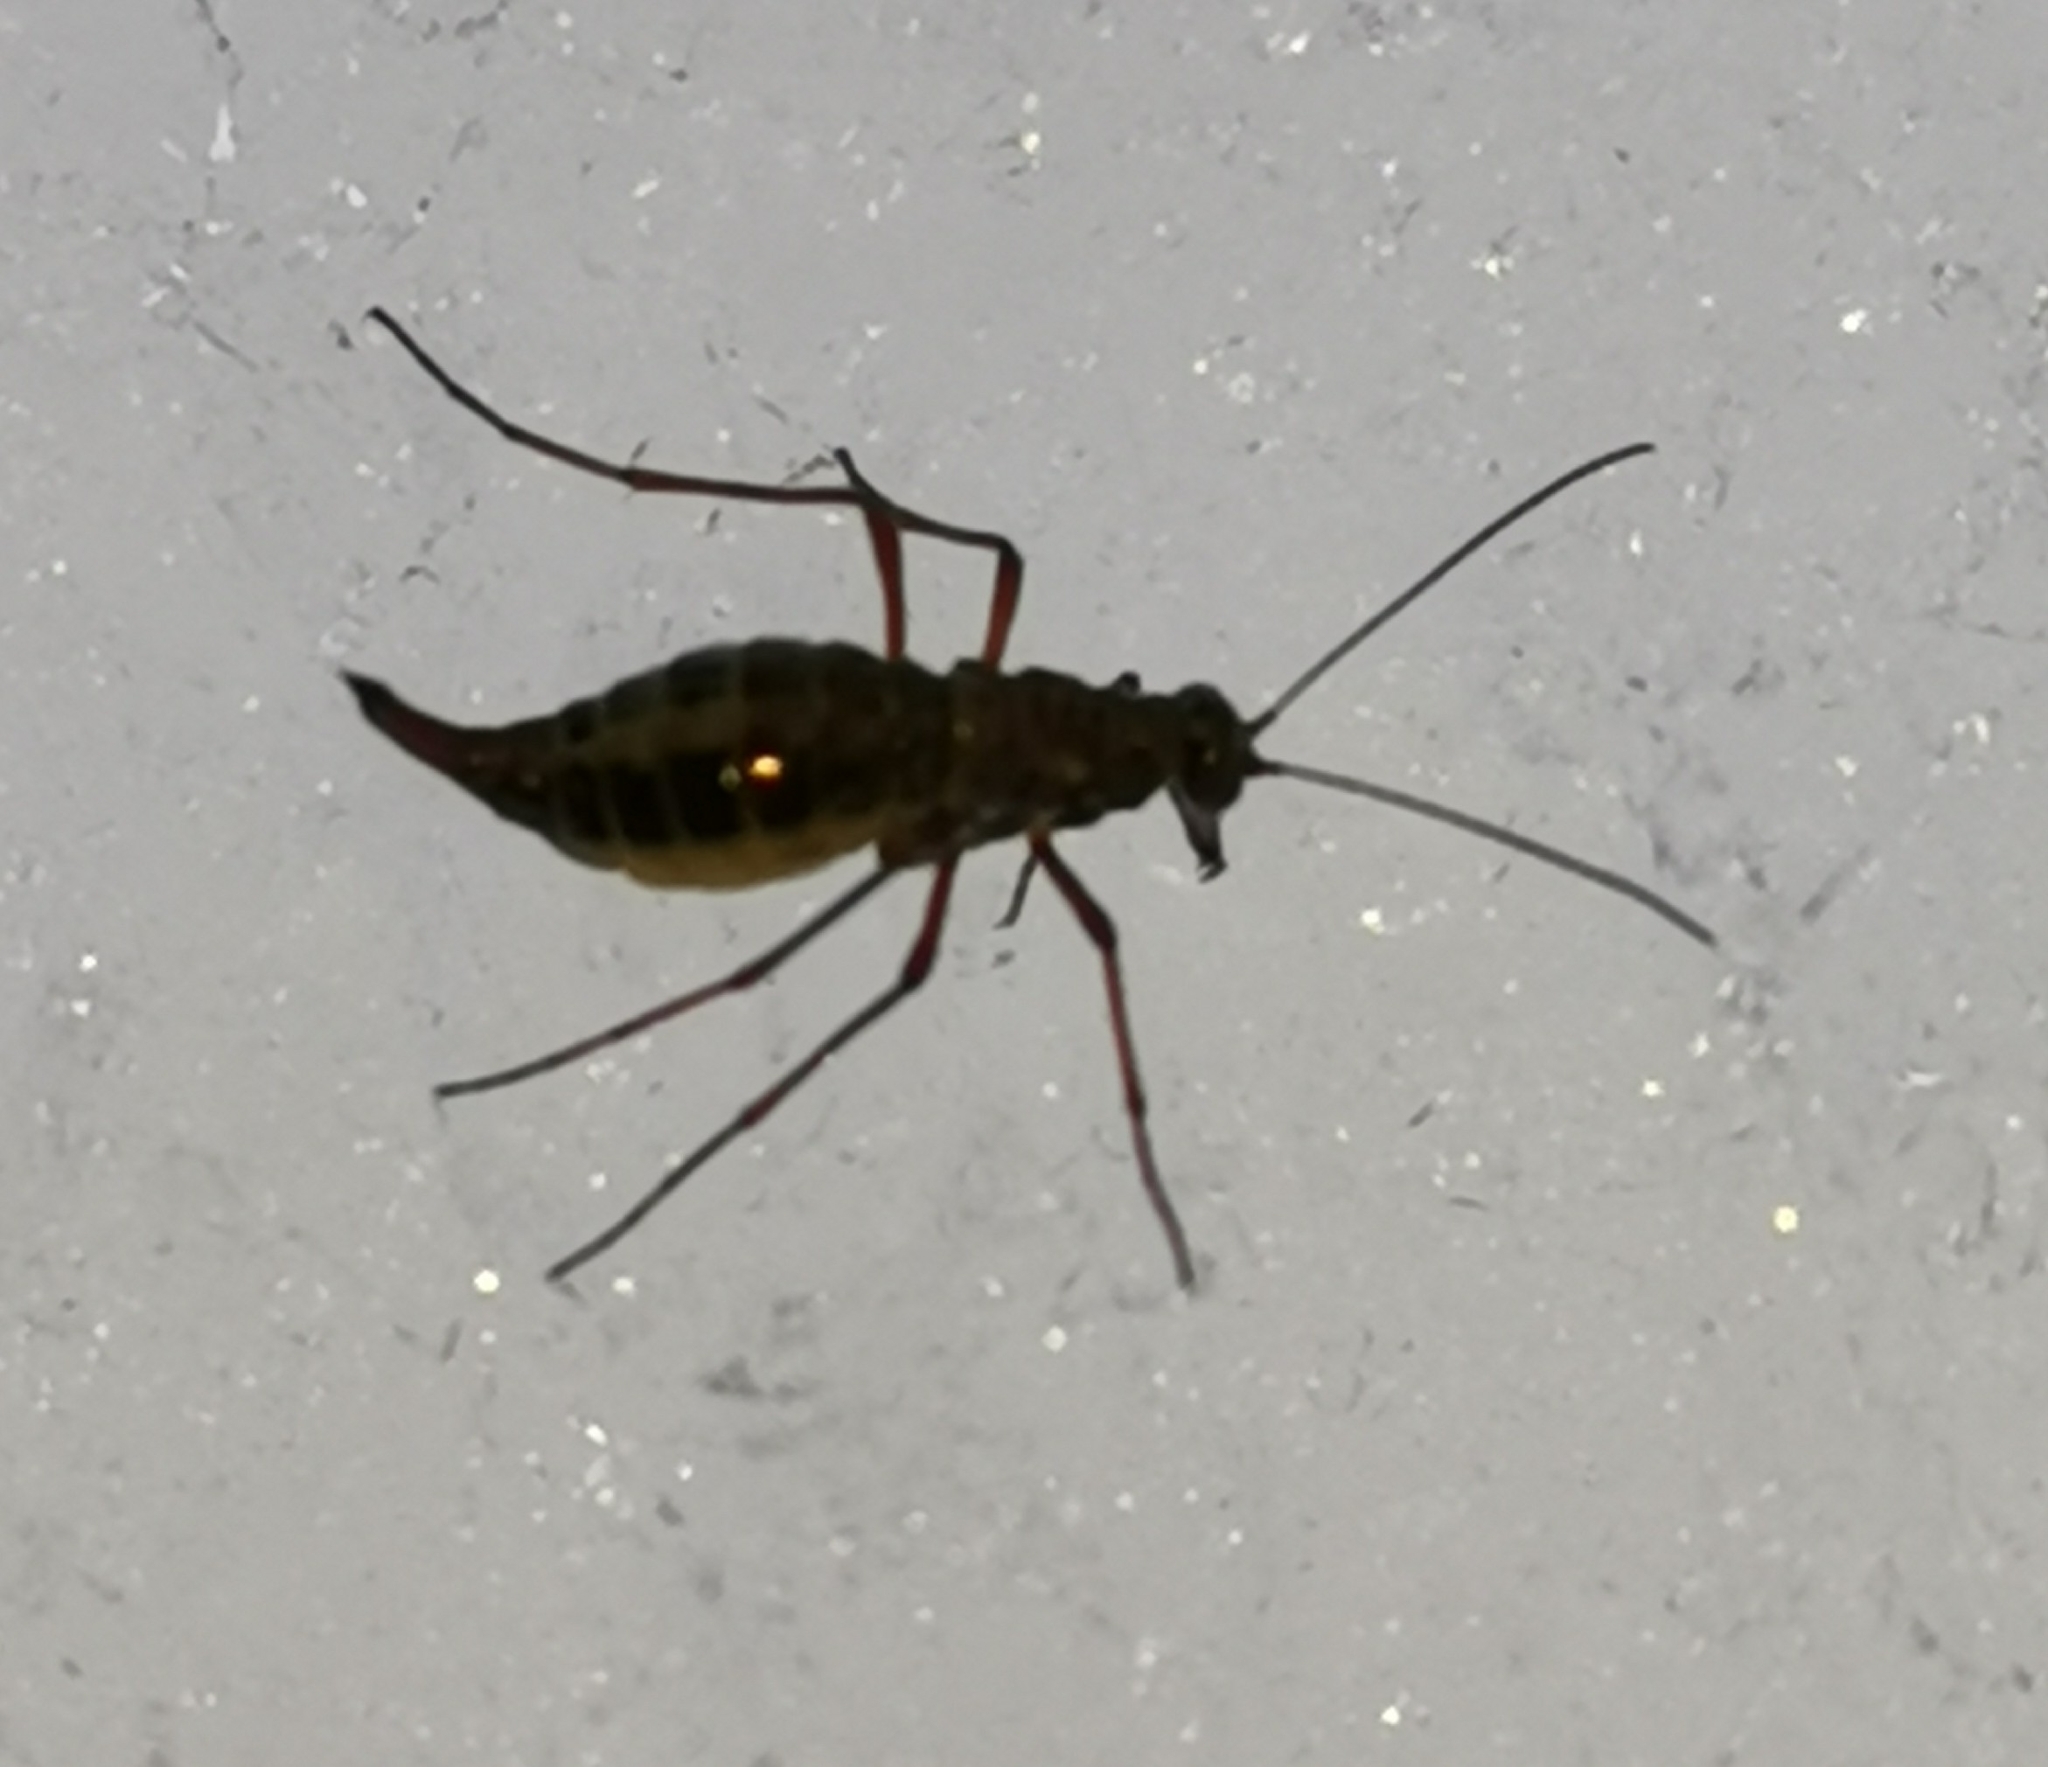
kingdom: Animalia
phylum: Arthropoda
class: Insecta
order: Mecoptera
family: Boreidae
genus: Boreus
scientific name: Boreus westwoodi
